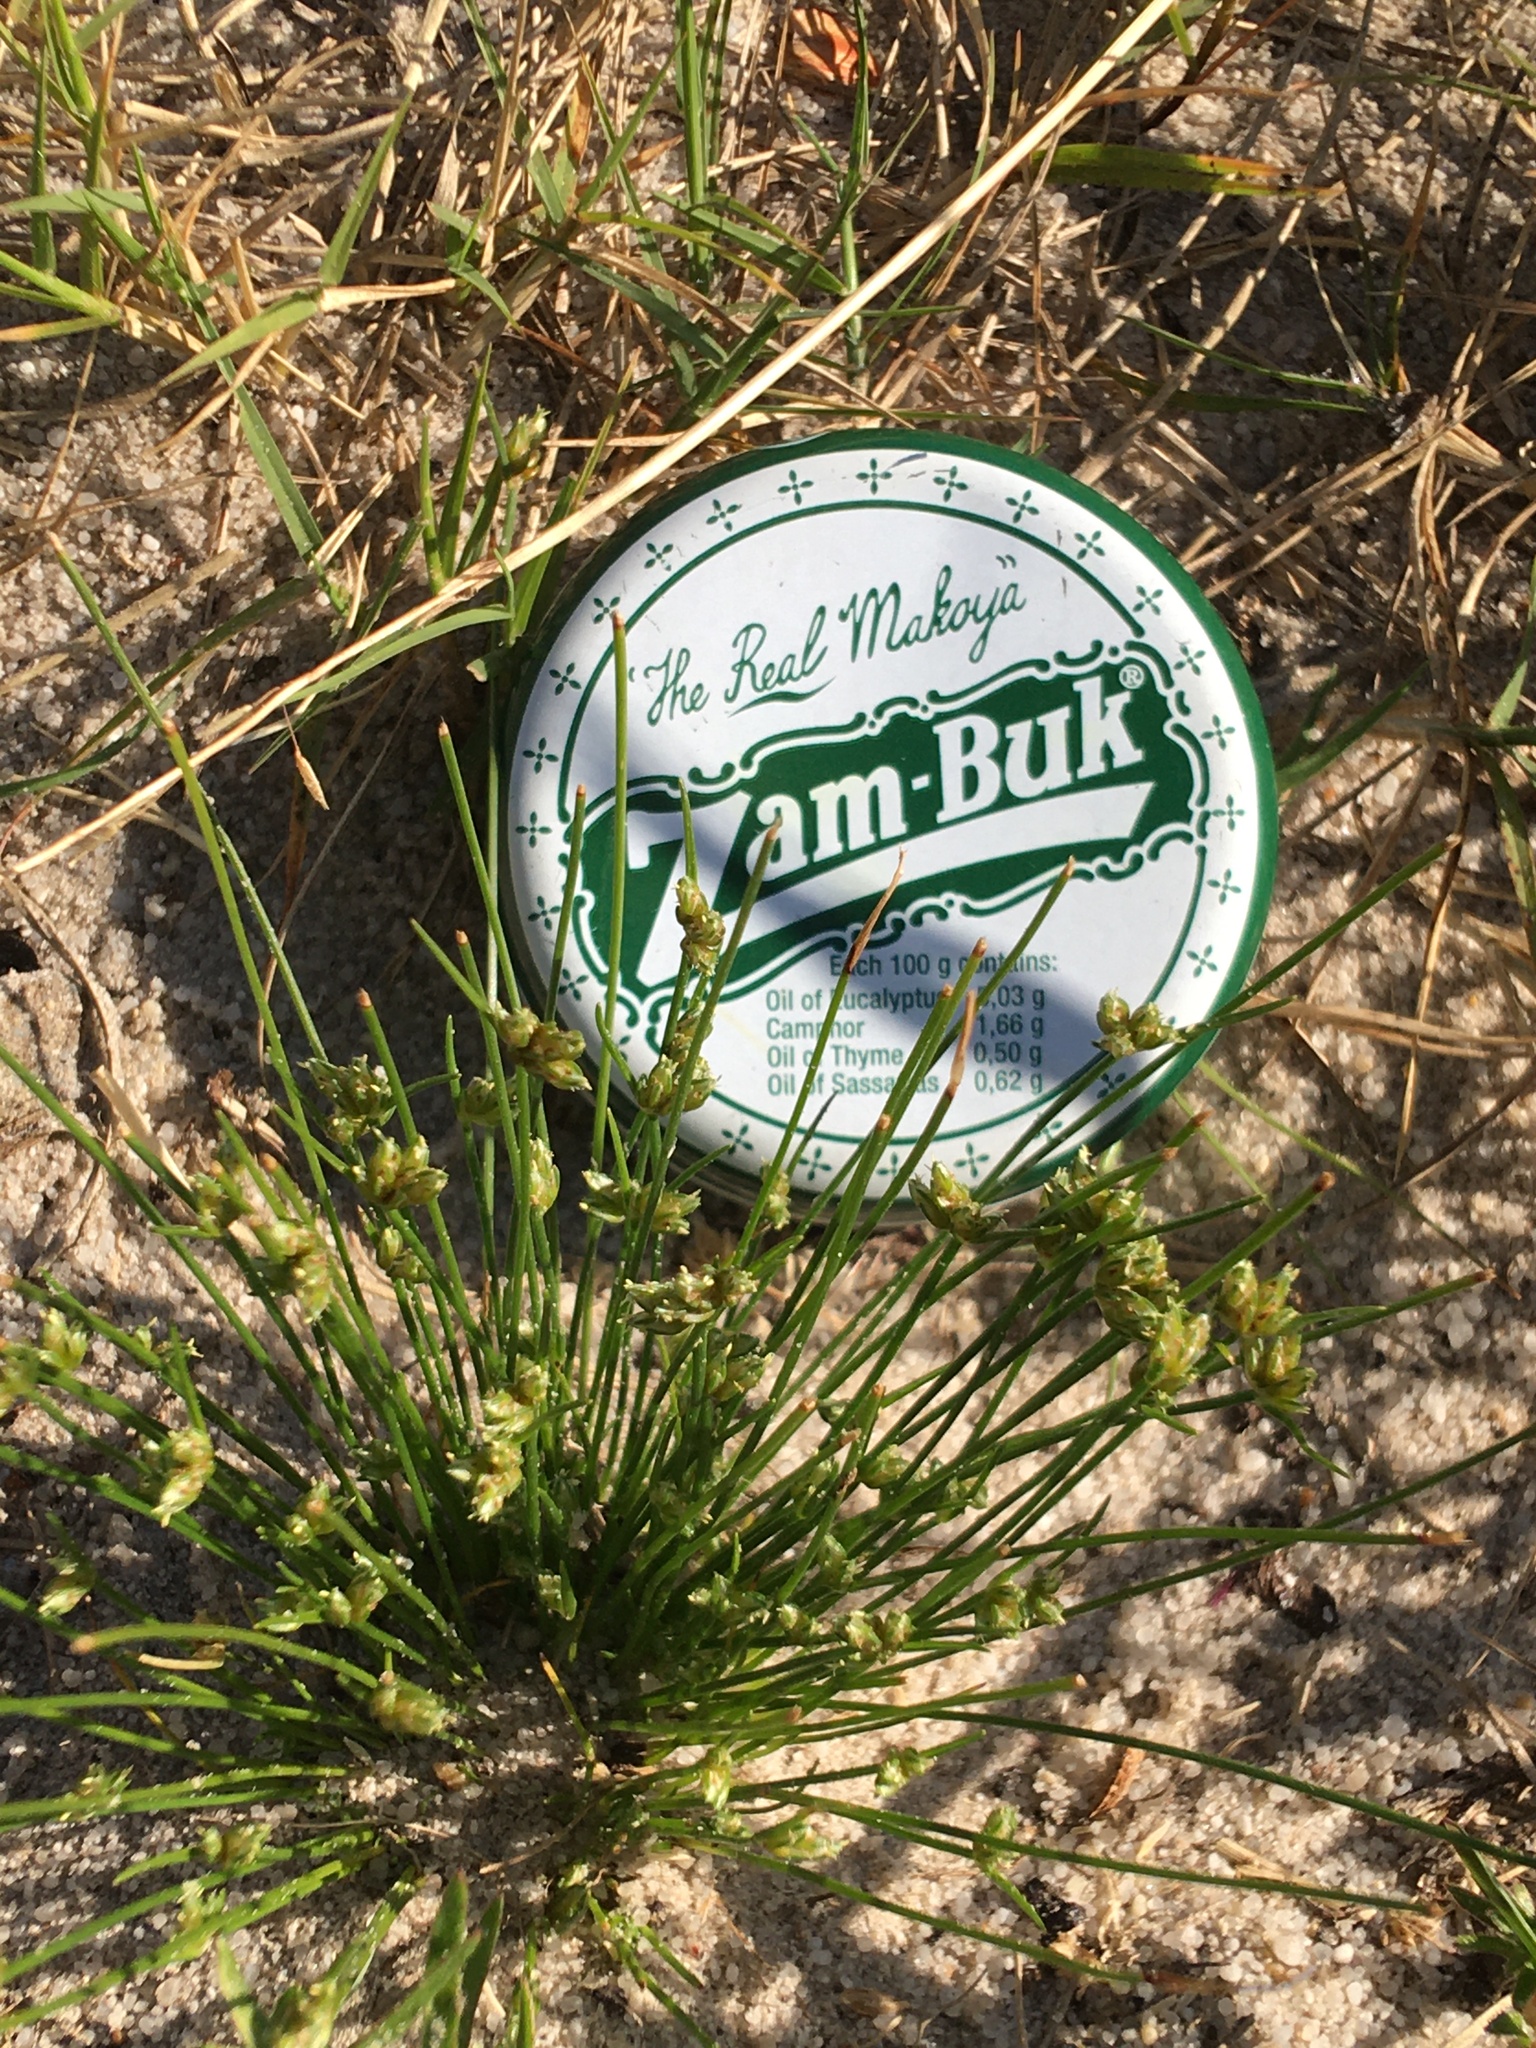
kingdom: Plantae
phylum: Tracheophyta
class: Liliopsida
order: Poales
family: Cyperaceae
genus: Isolepis
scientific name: Isolepis marginata
